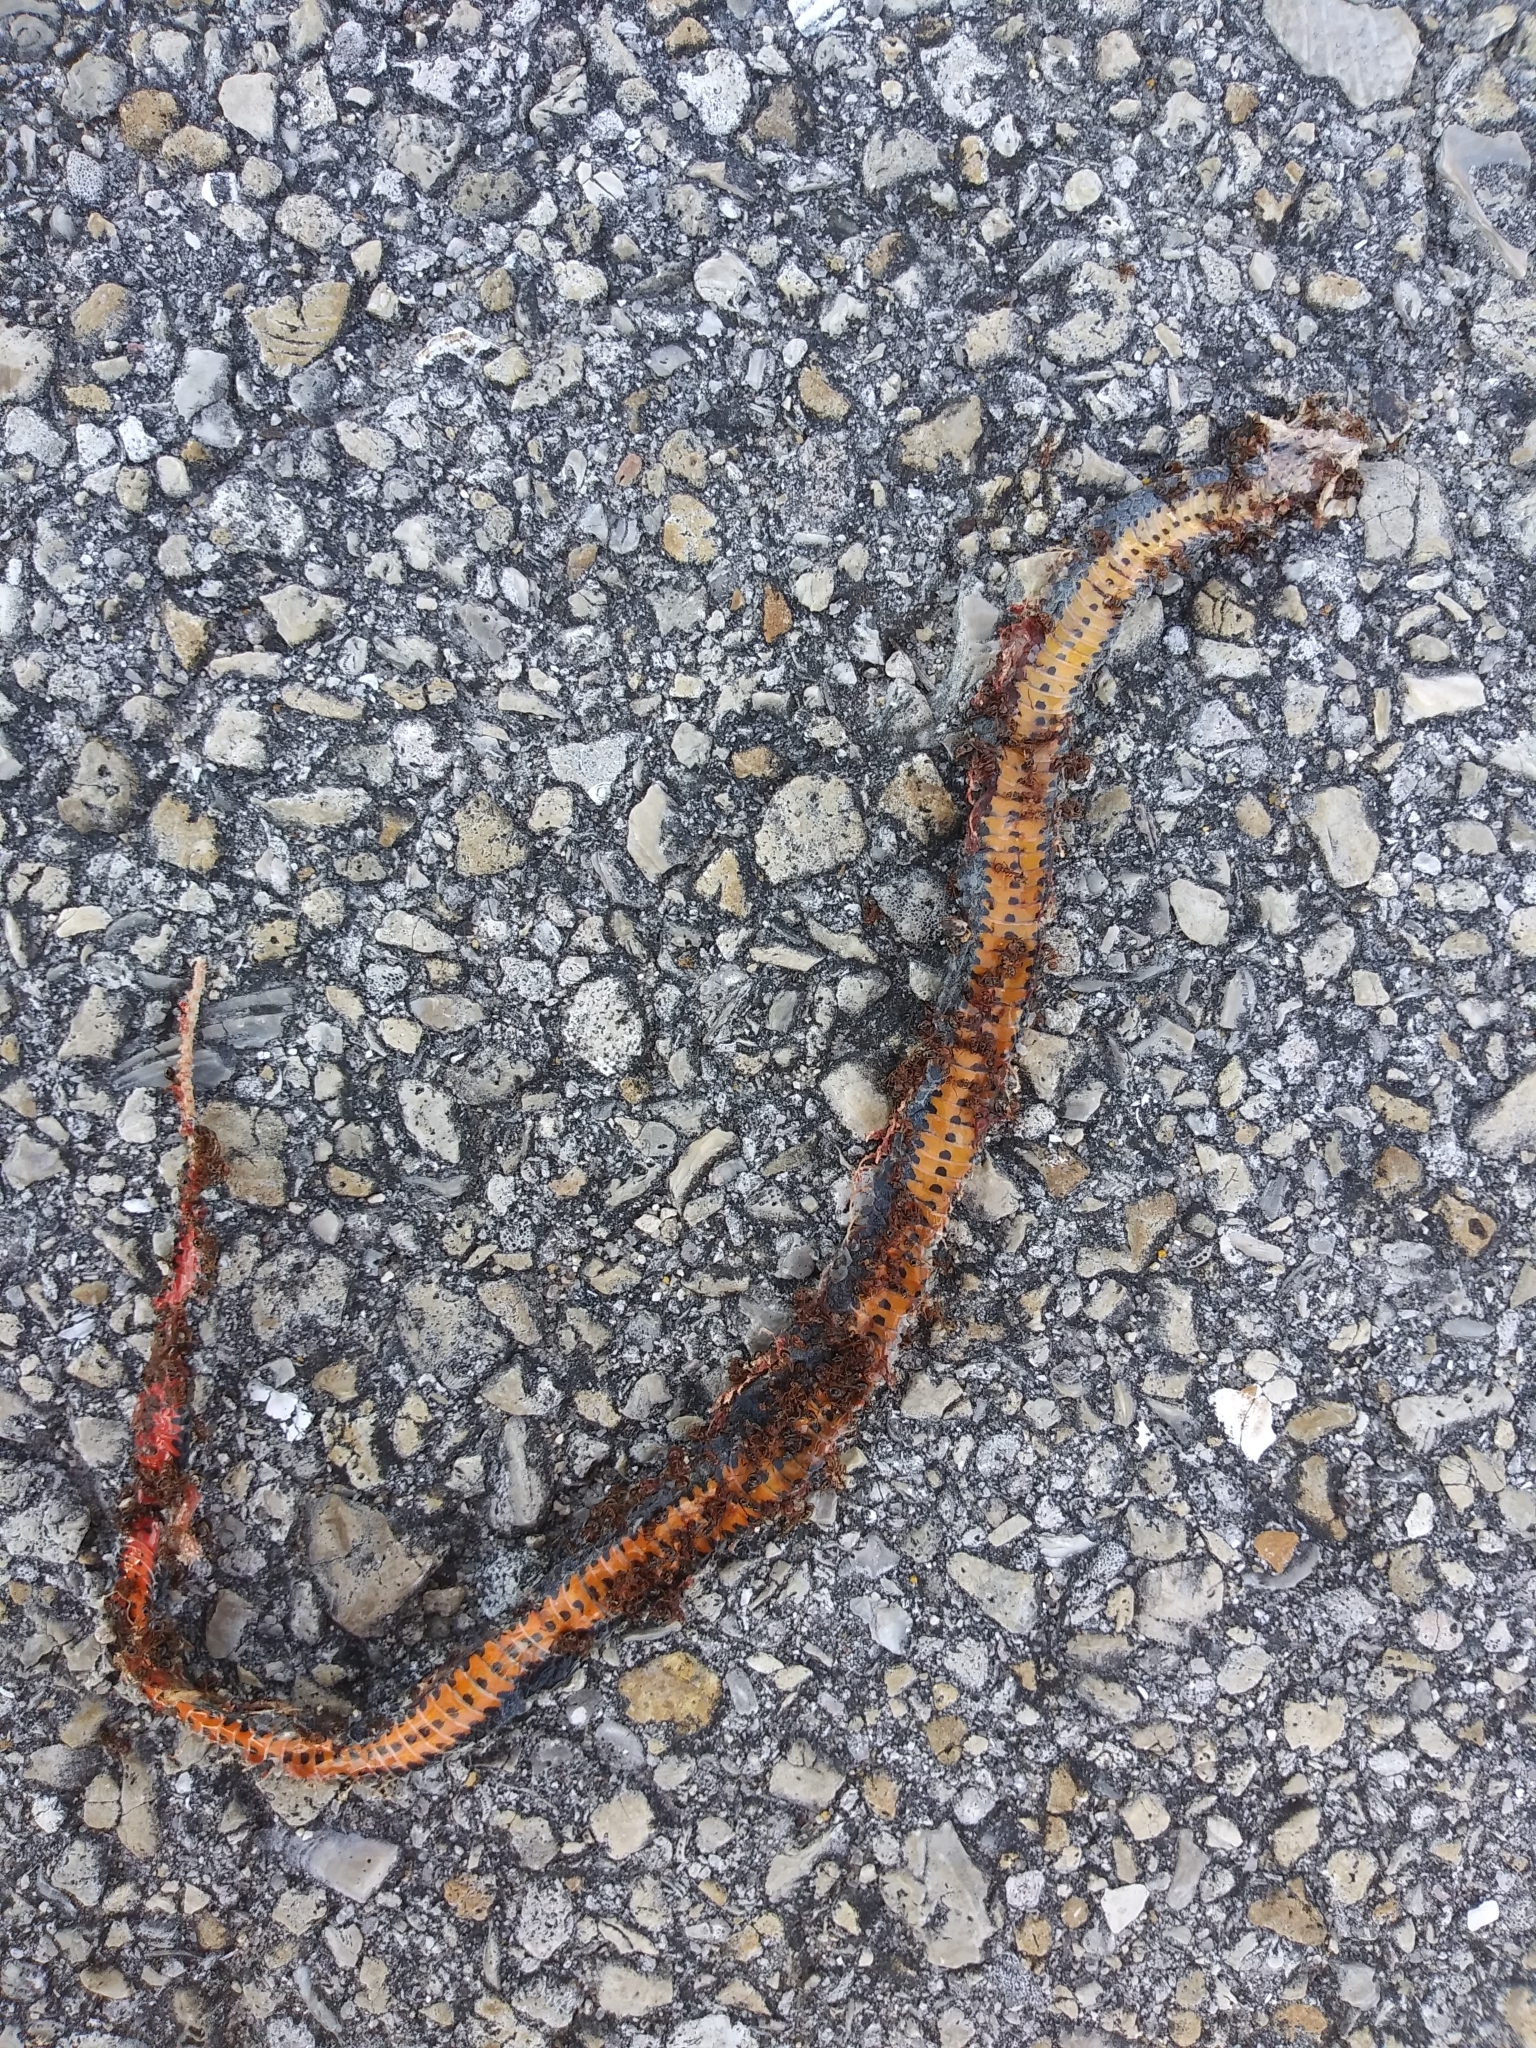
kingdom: Animalia
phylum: Chordata
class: Squamata
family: Colubridae
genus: Diadophis
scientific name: Diadophis punctatus
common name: Ringneck snake
